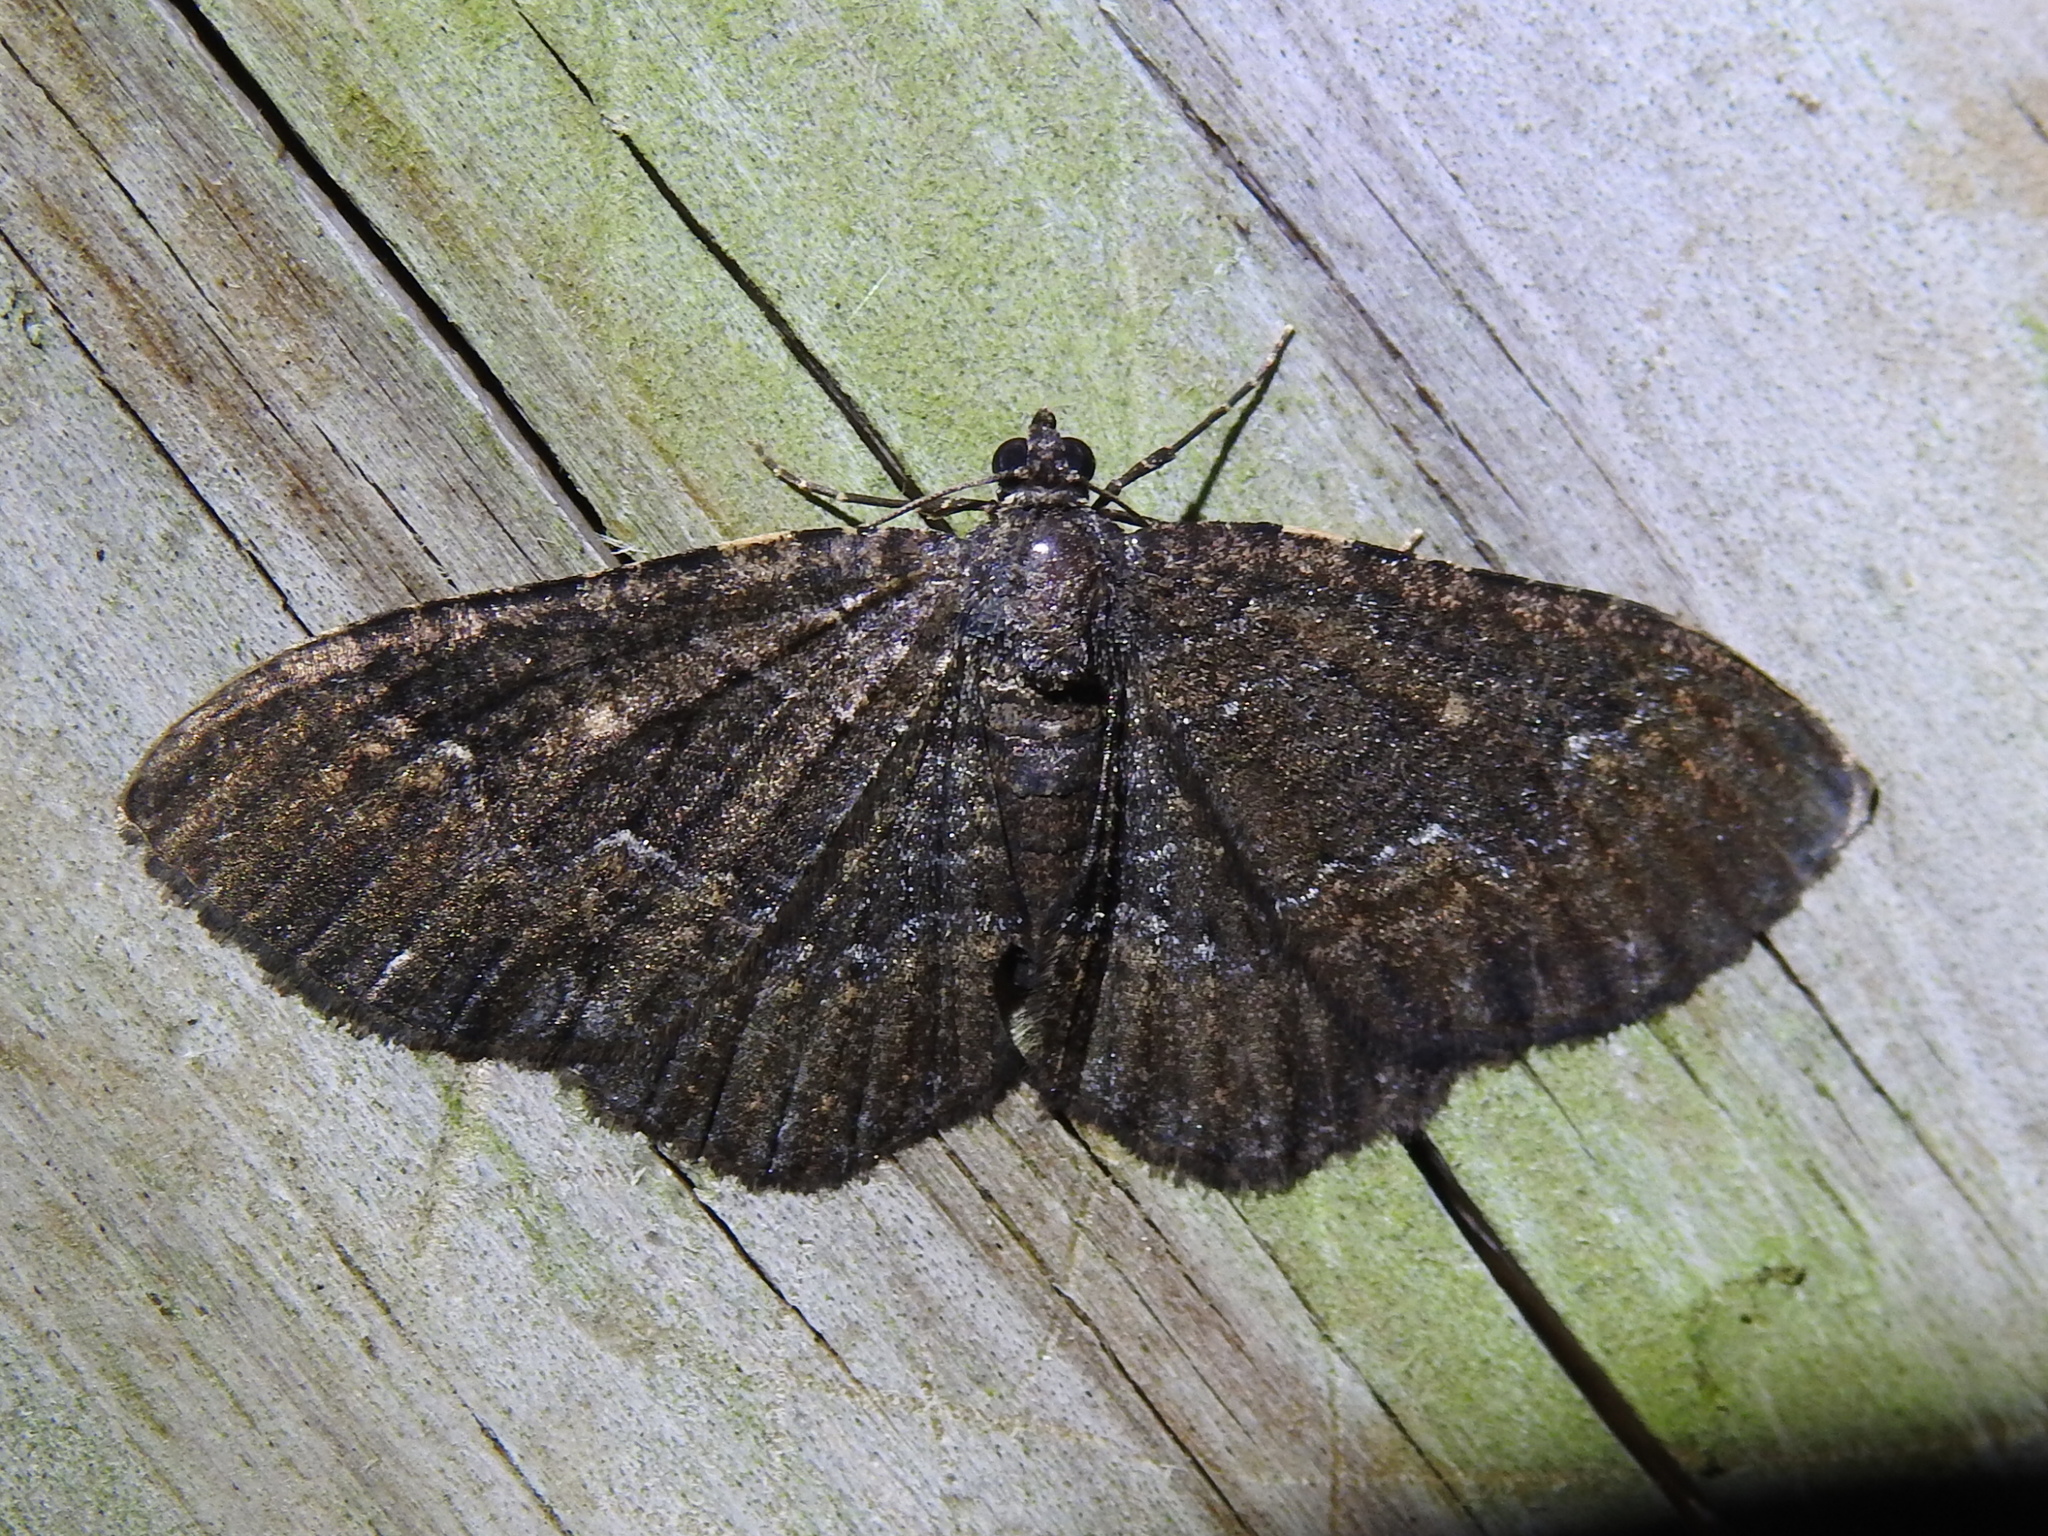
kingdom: Animalia
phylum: Arthropoda
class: Insecta
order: Lepidoptera
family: Geometridae
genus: Disclisioprocta
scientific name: Disclisioprocta stellata
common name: Somber carpet
